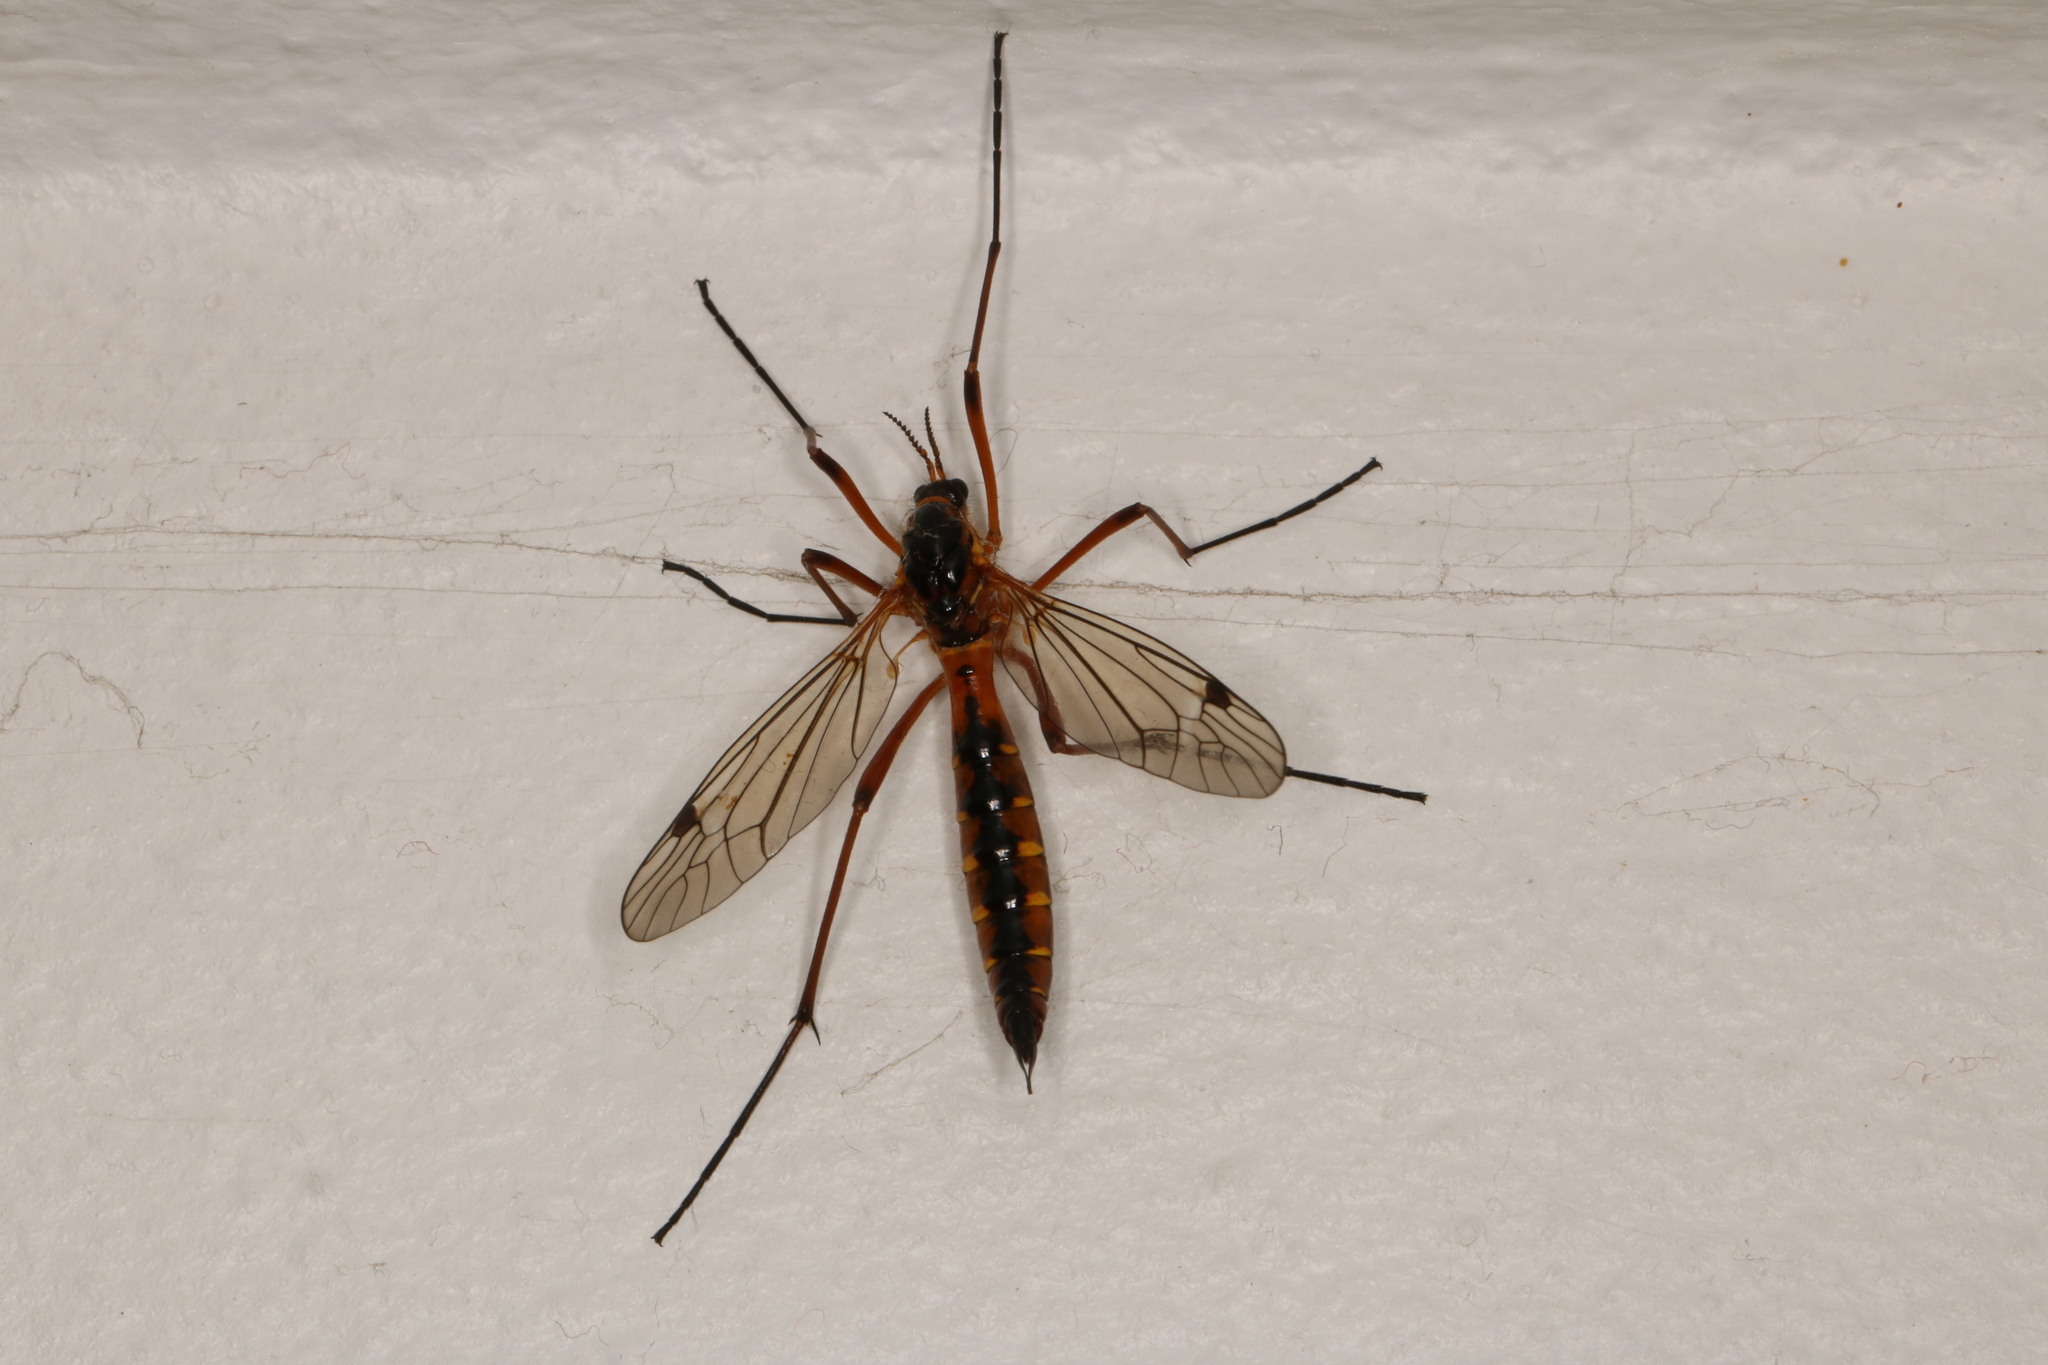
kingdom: Animalia
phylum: Arthropoda
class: Insecta
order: Diptera
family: Tipulidae
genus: Ctenophora
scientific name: Ctenophora pectinicornis
